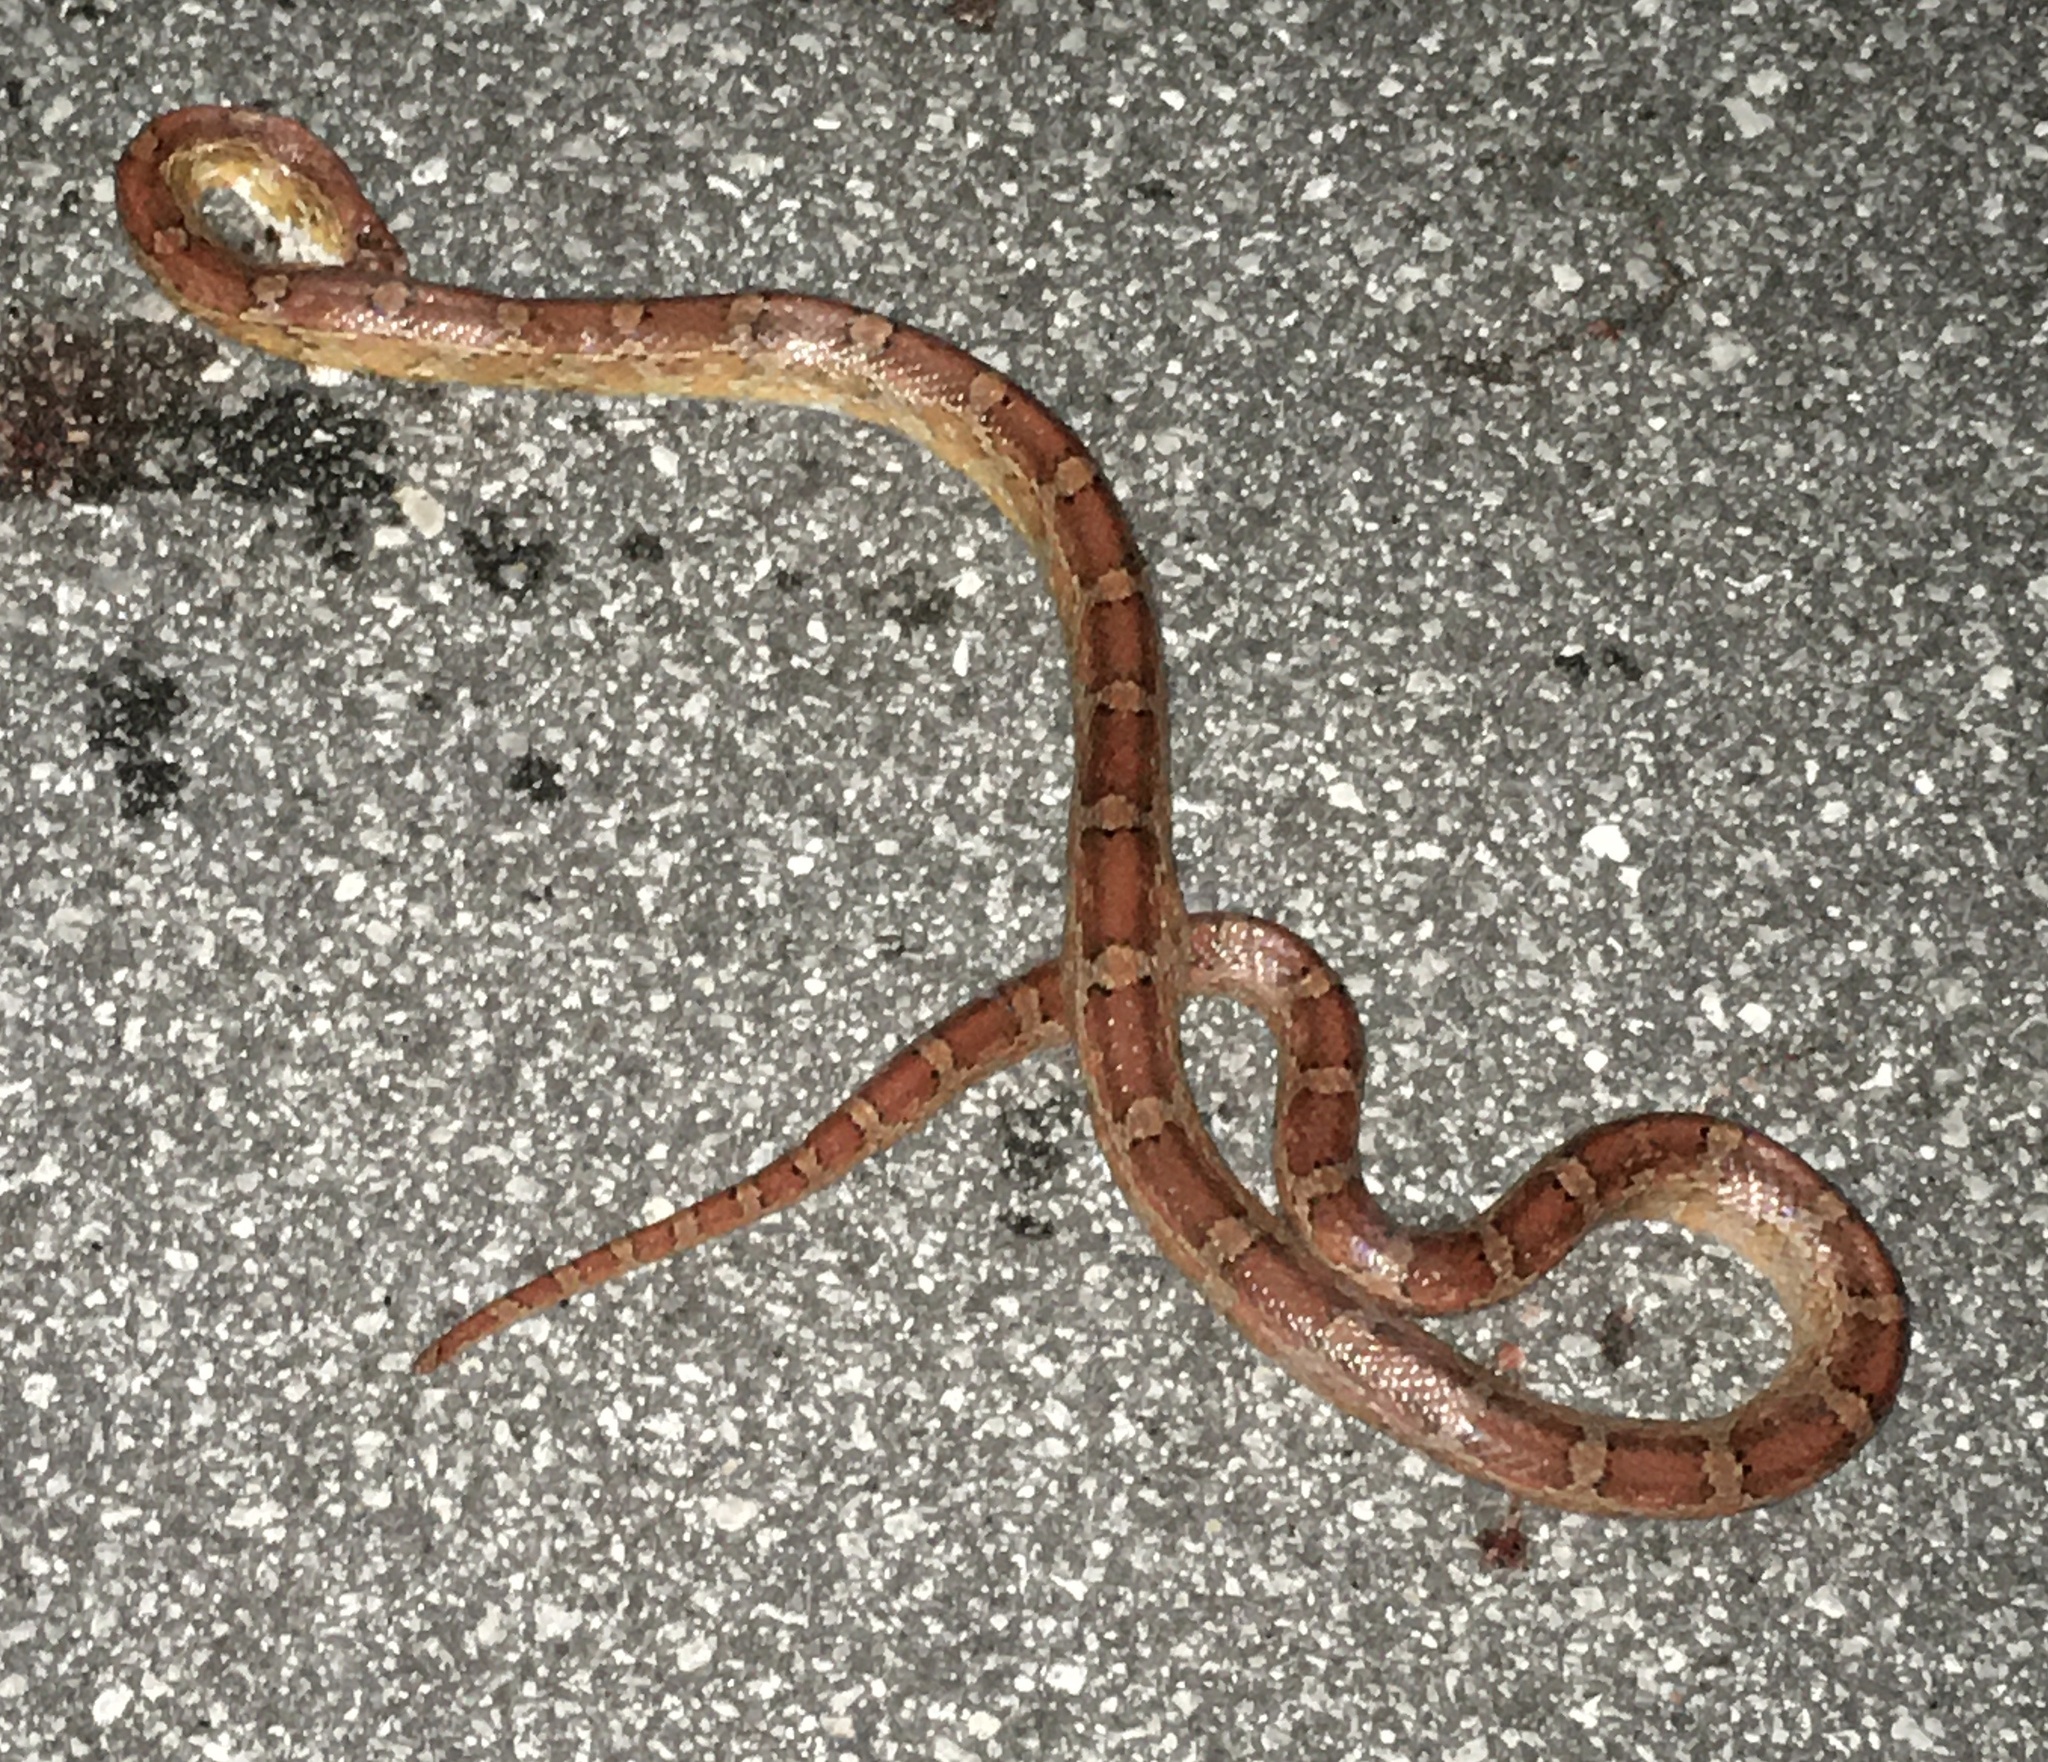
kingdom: Animalia
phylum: Chordata
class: Squamata
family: Colubridae
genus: Pantherophis
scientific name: Pantherophis guttatus
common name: Red cornsnake
